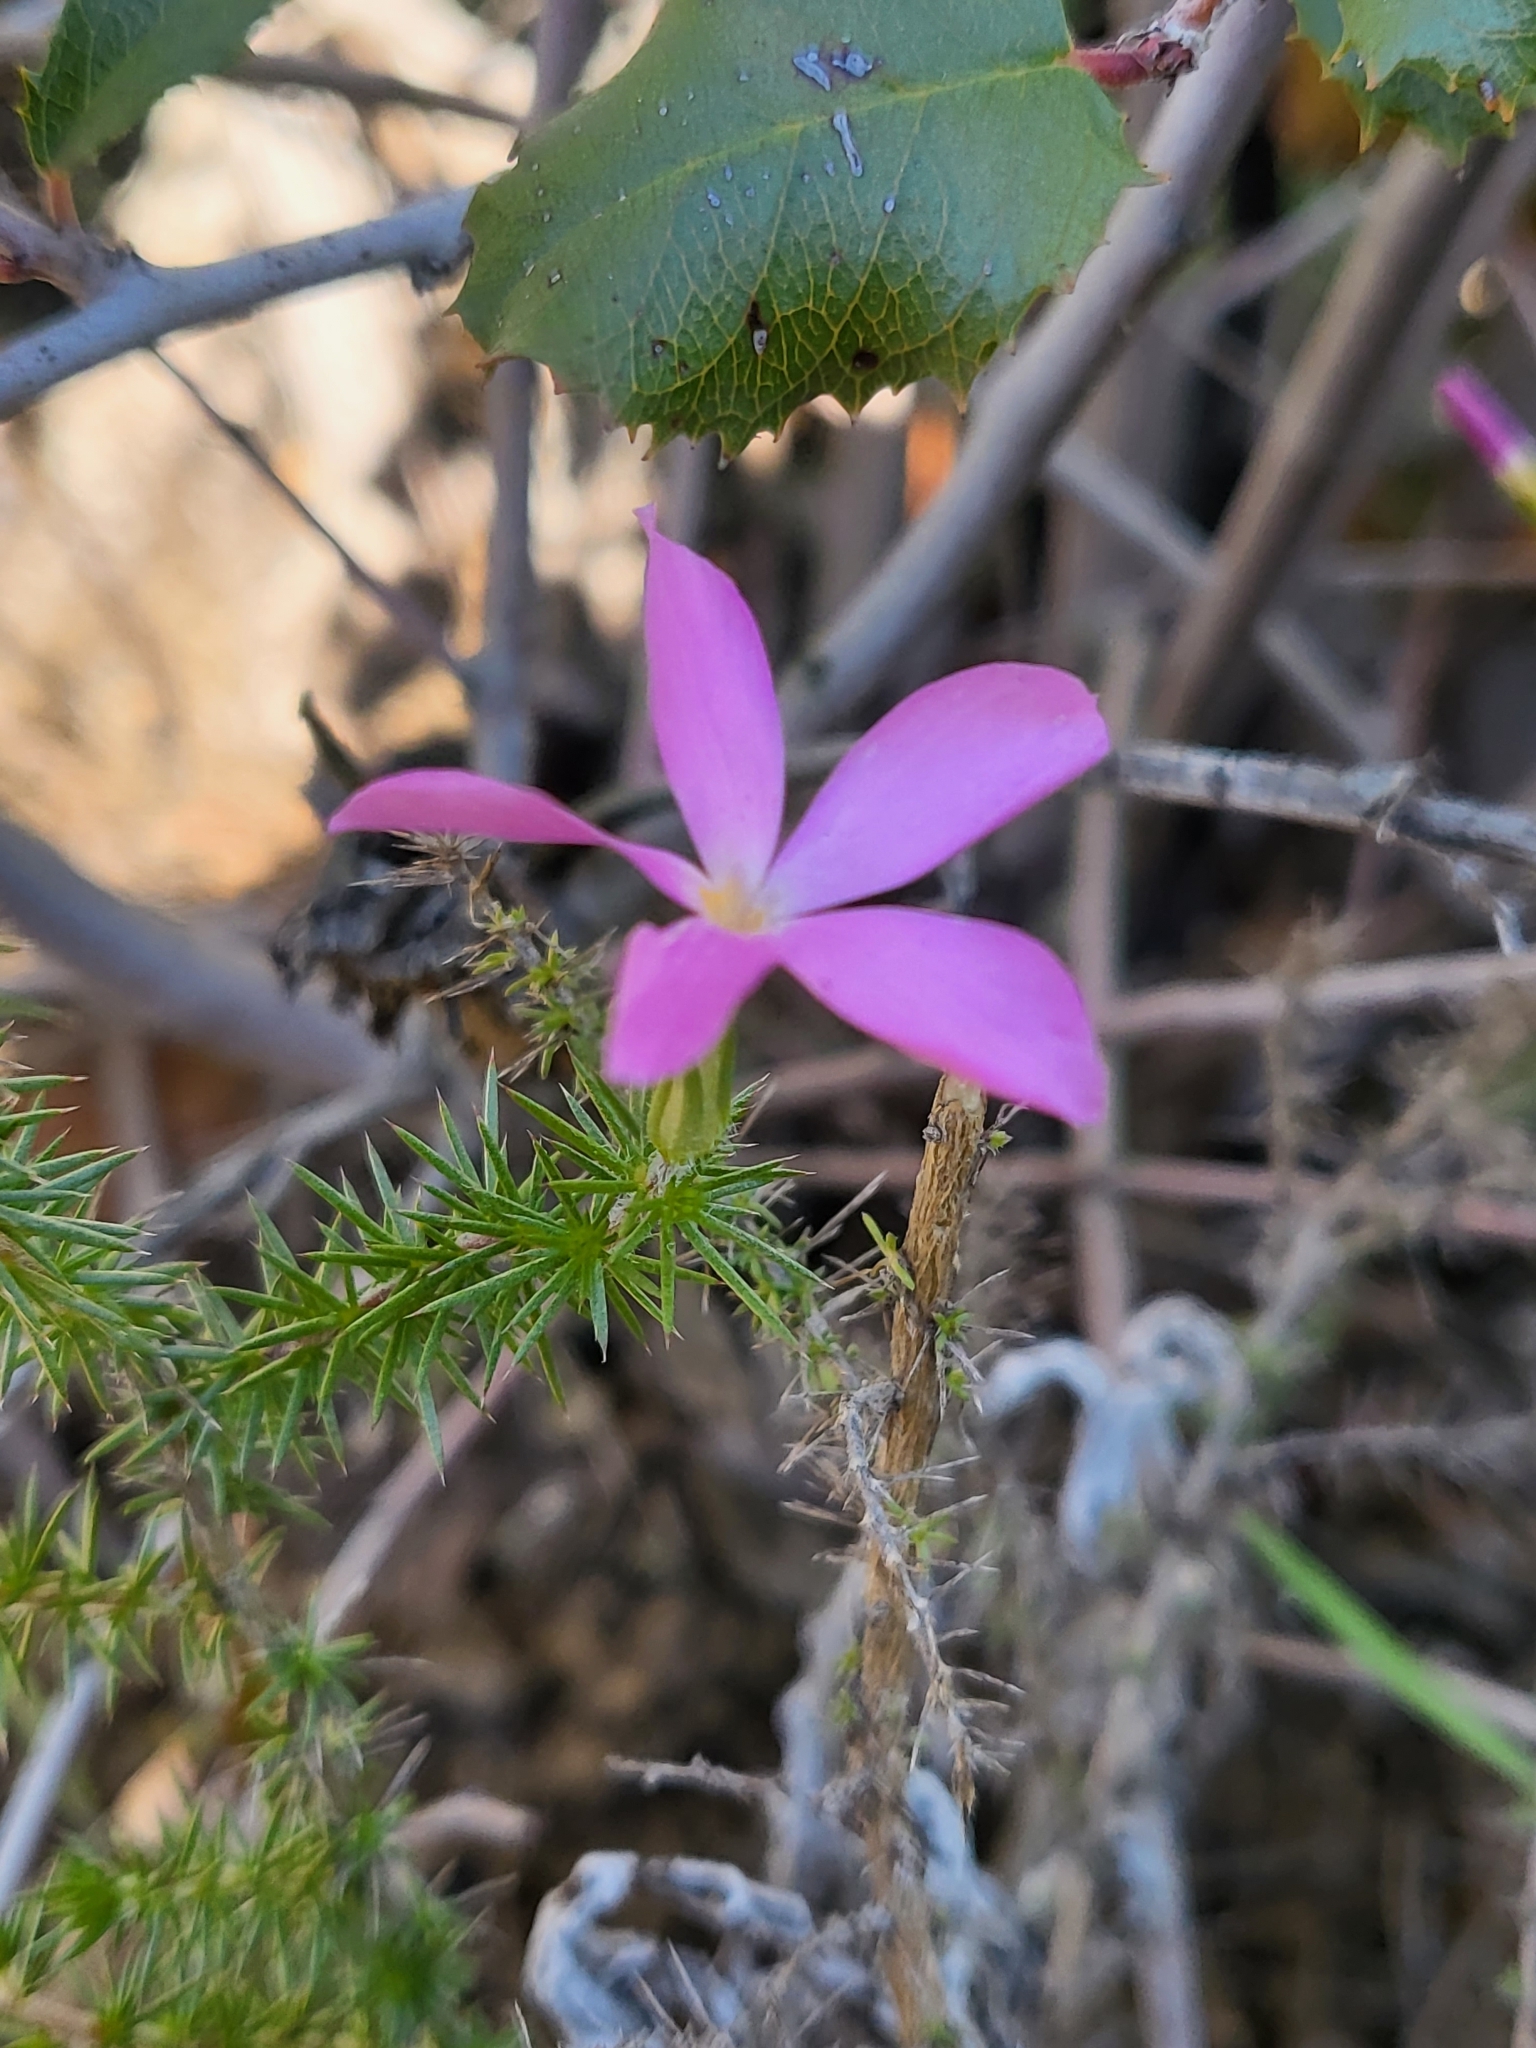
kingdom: Plantae
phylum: Tracheophyta
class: Magnoliopsida
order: Ericales
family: Polemoniaceae
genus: Linanthus
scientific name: Linanthus californicus
